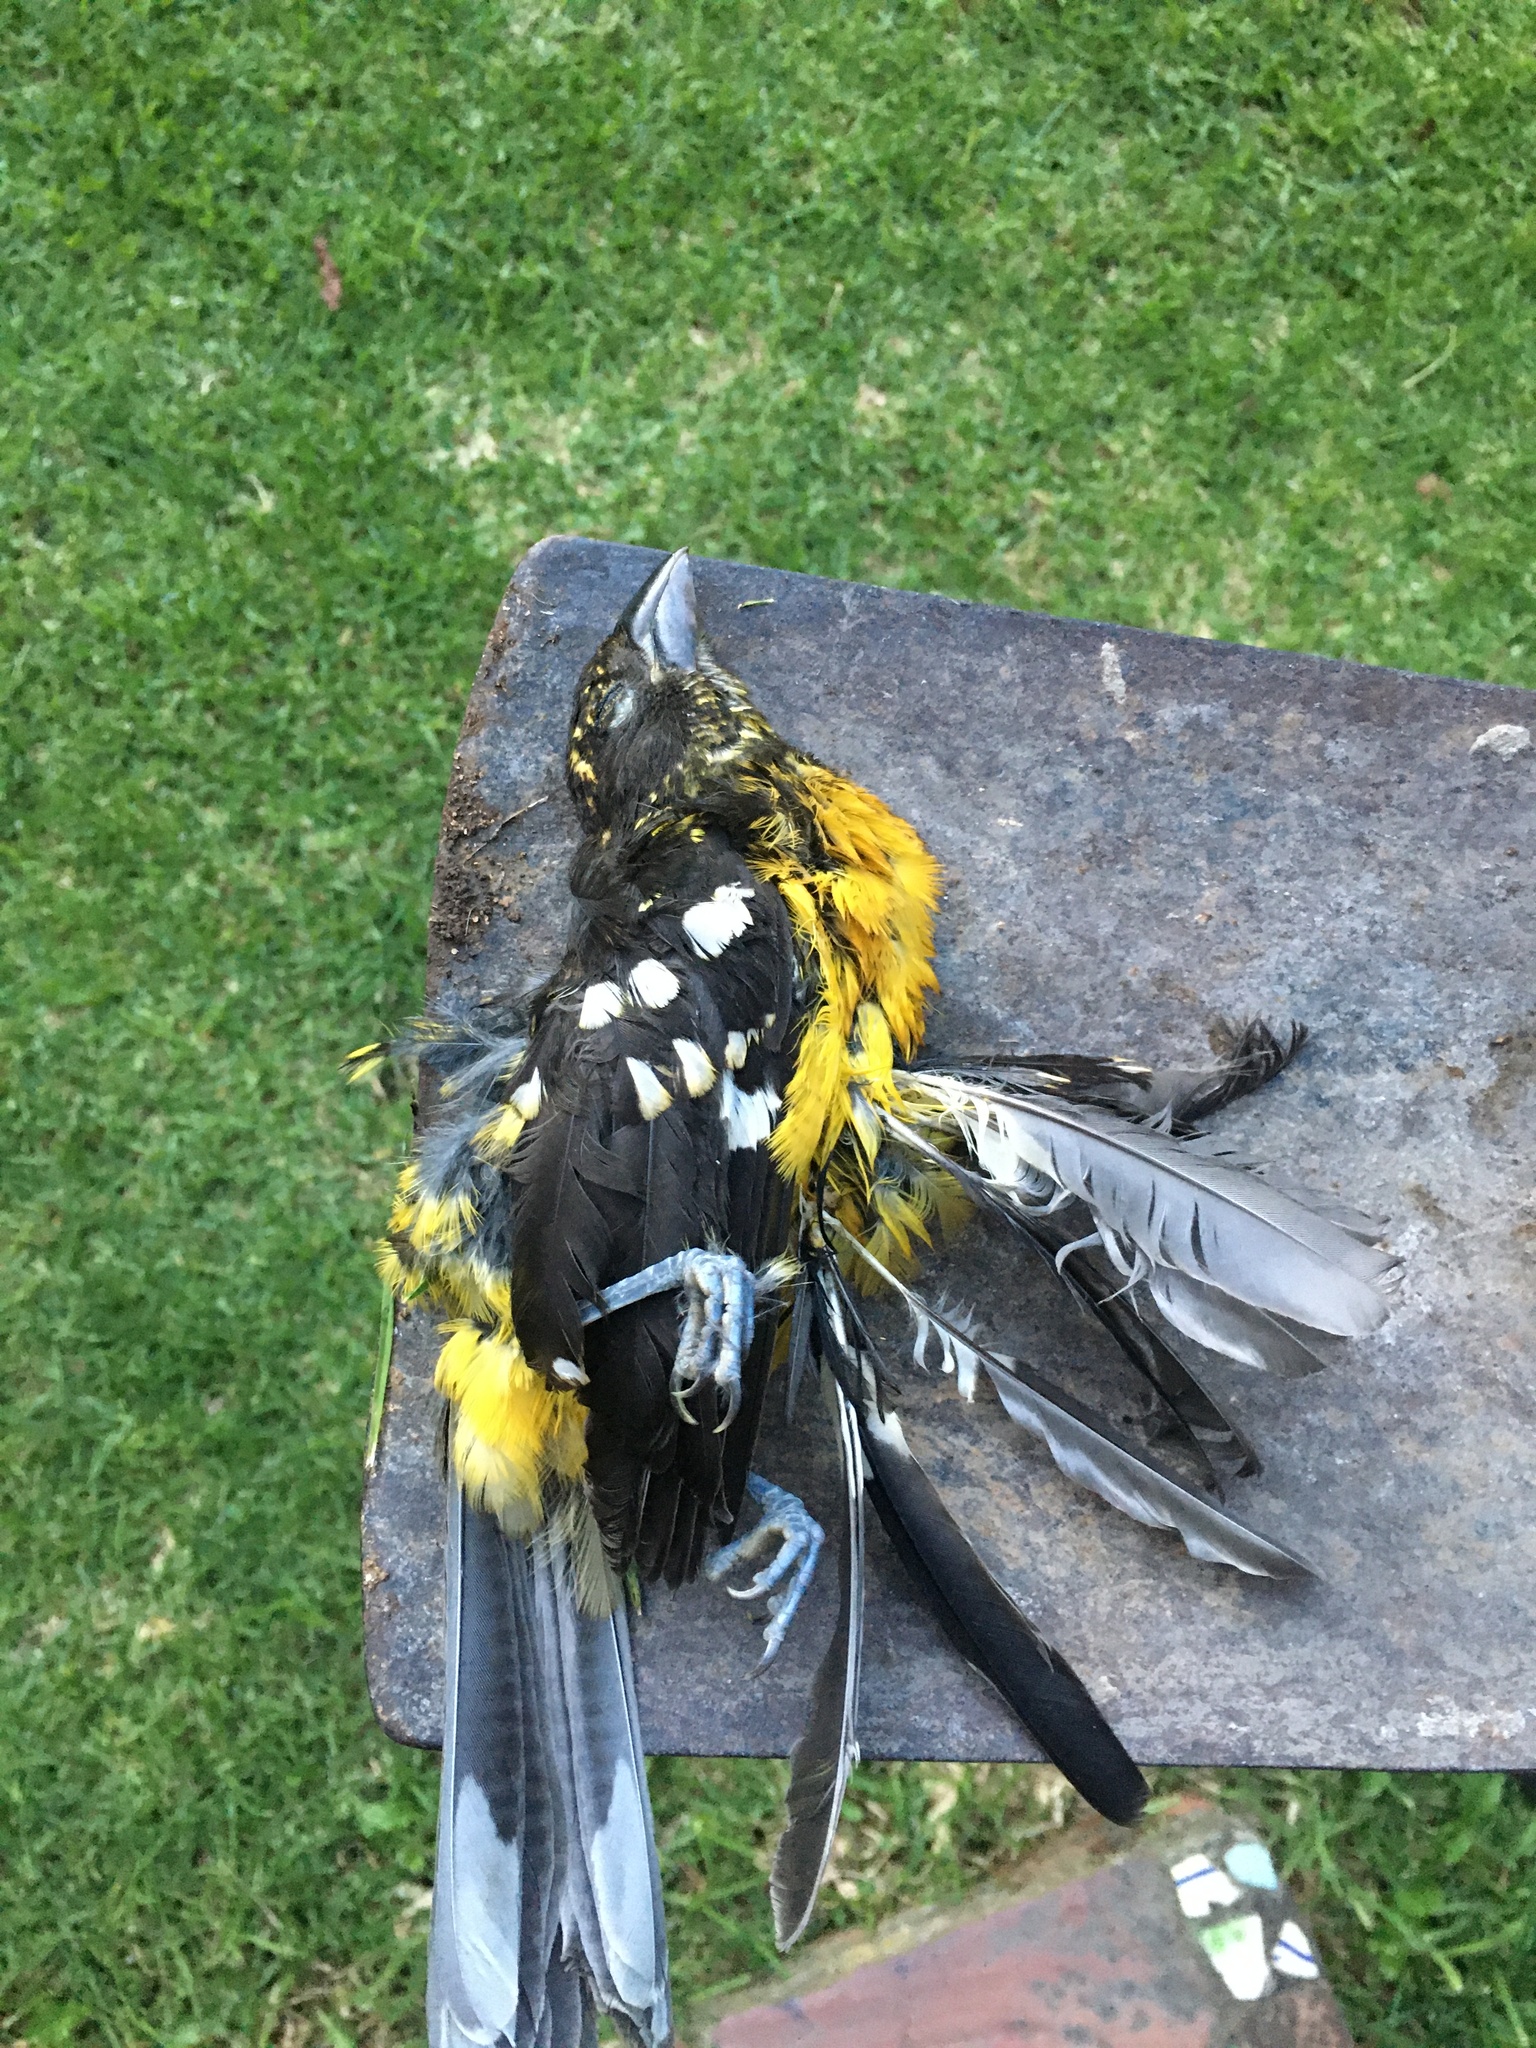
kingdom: Animalia
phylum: Chordata
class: Aves
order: Passeriformes
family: Cardinalidae
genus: Pheucticus
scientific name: Pheucticus aureoventris
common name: Black-backed grosbeak
